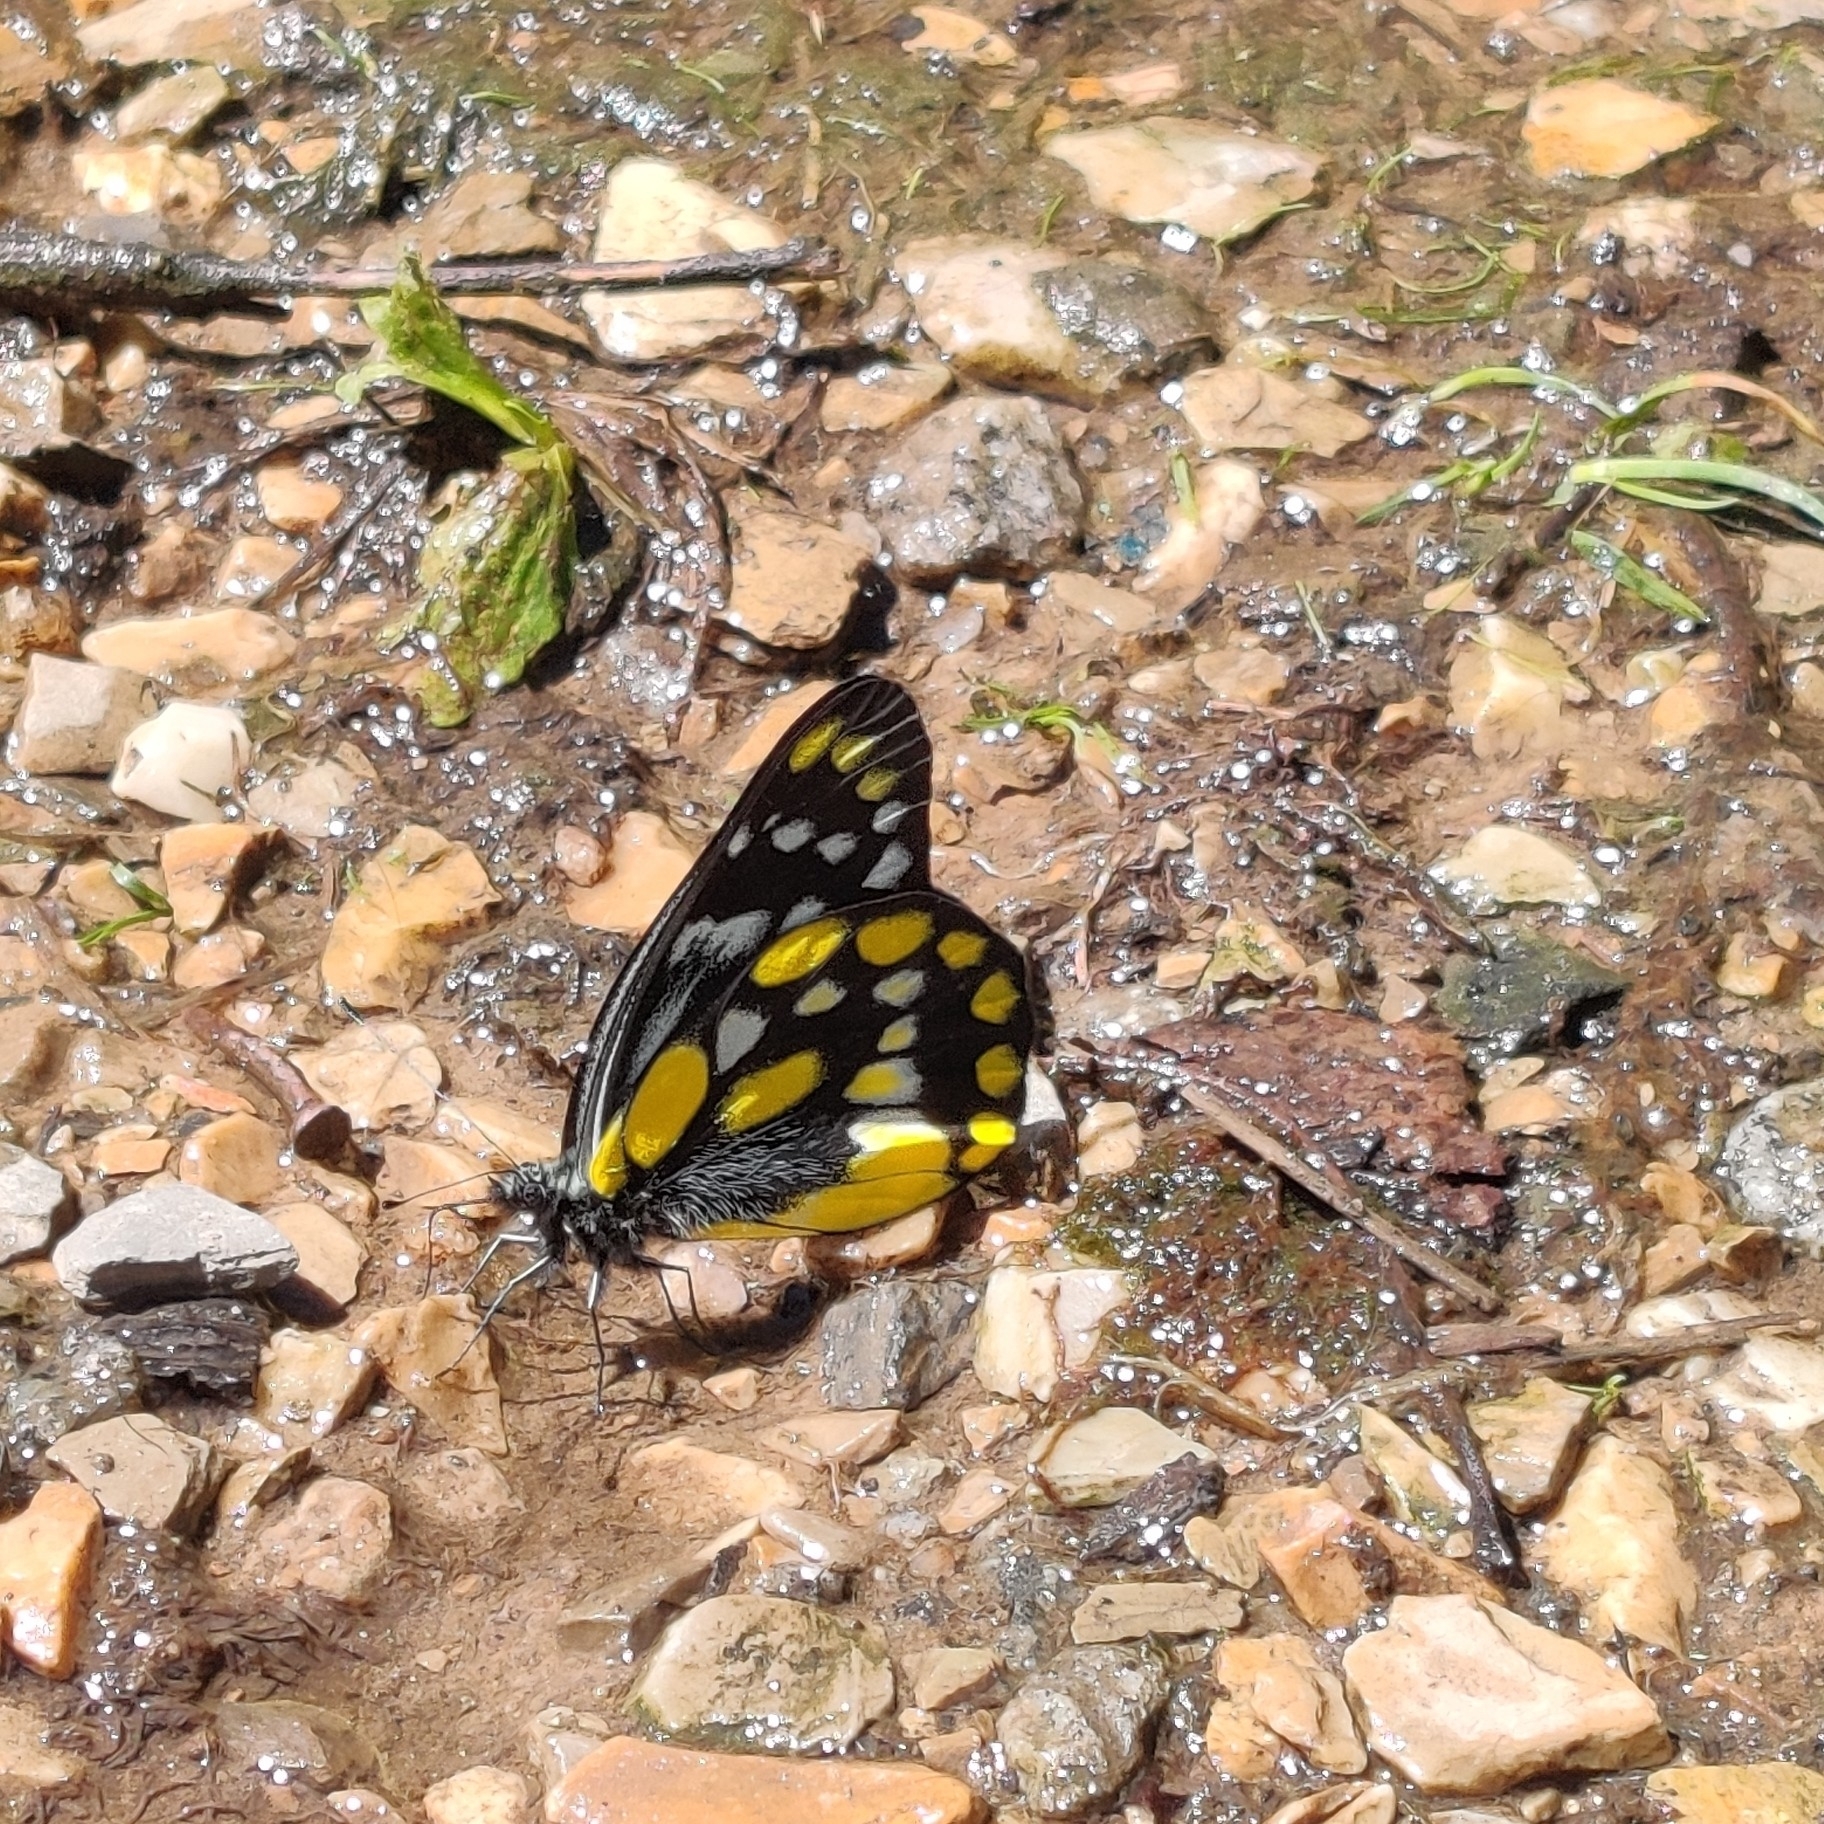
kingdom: Animalia
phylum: Arthropoda
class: Insecta
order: Lepidoptera
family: Pieridae
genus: Delias
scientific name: Delias belladonna
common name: Hill jezebel
